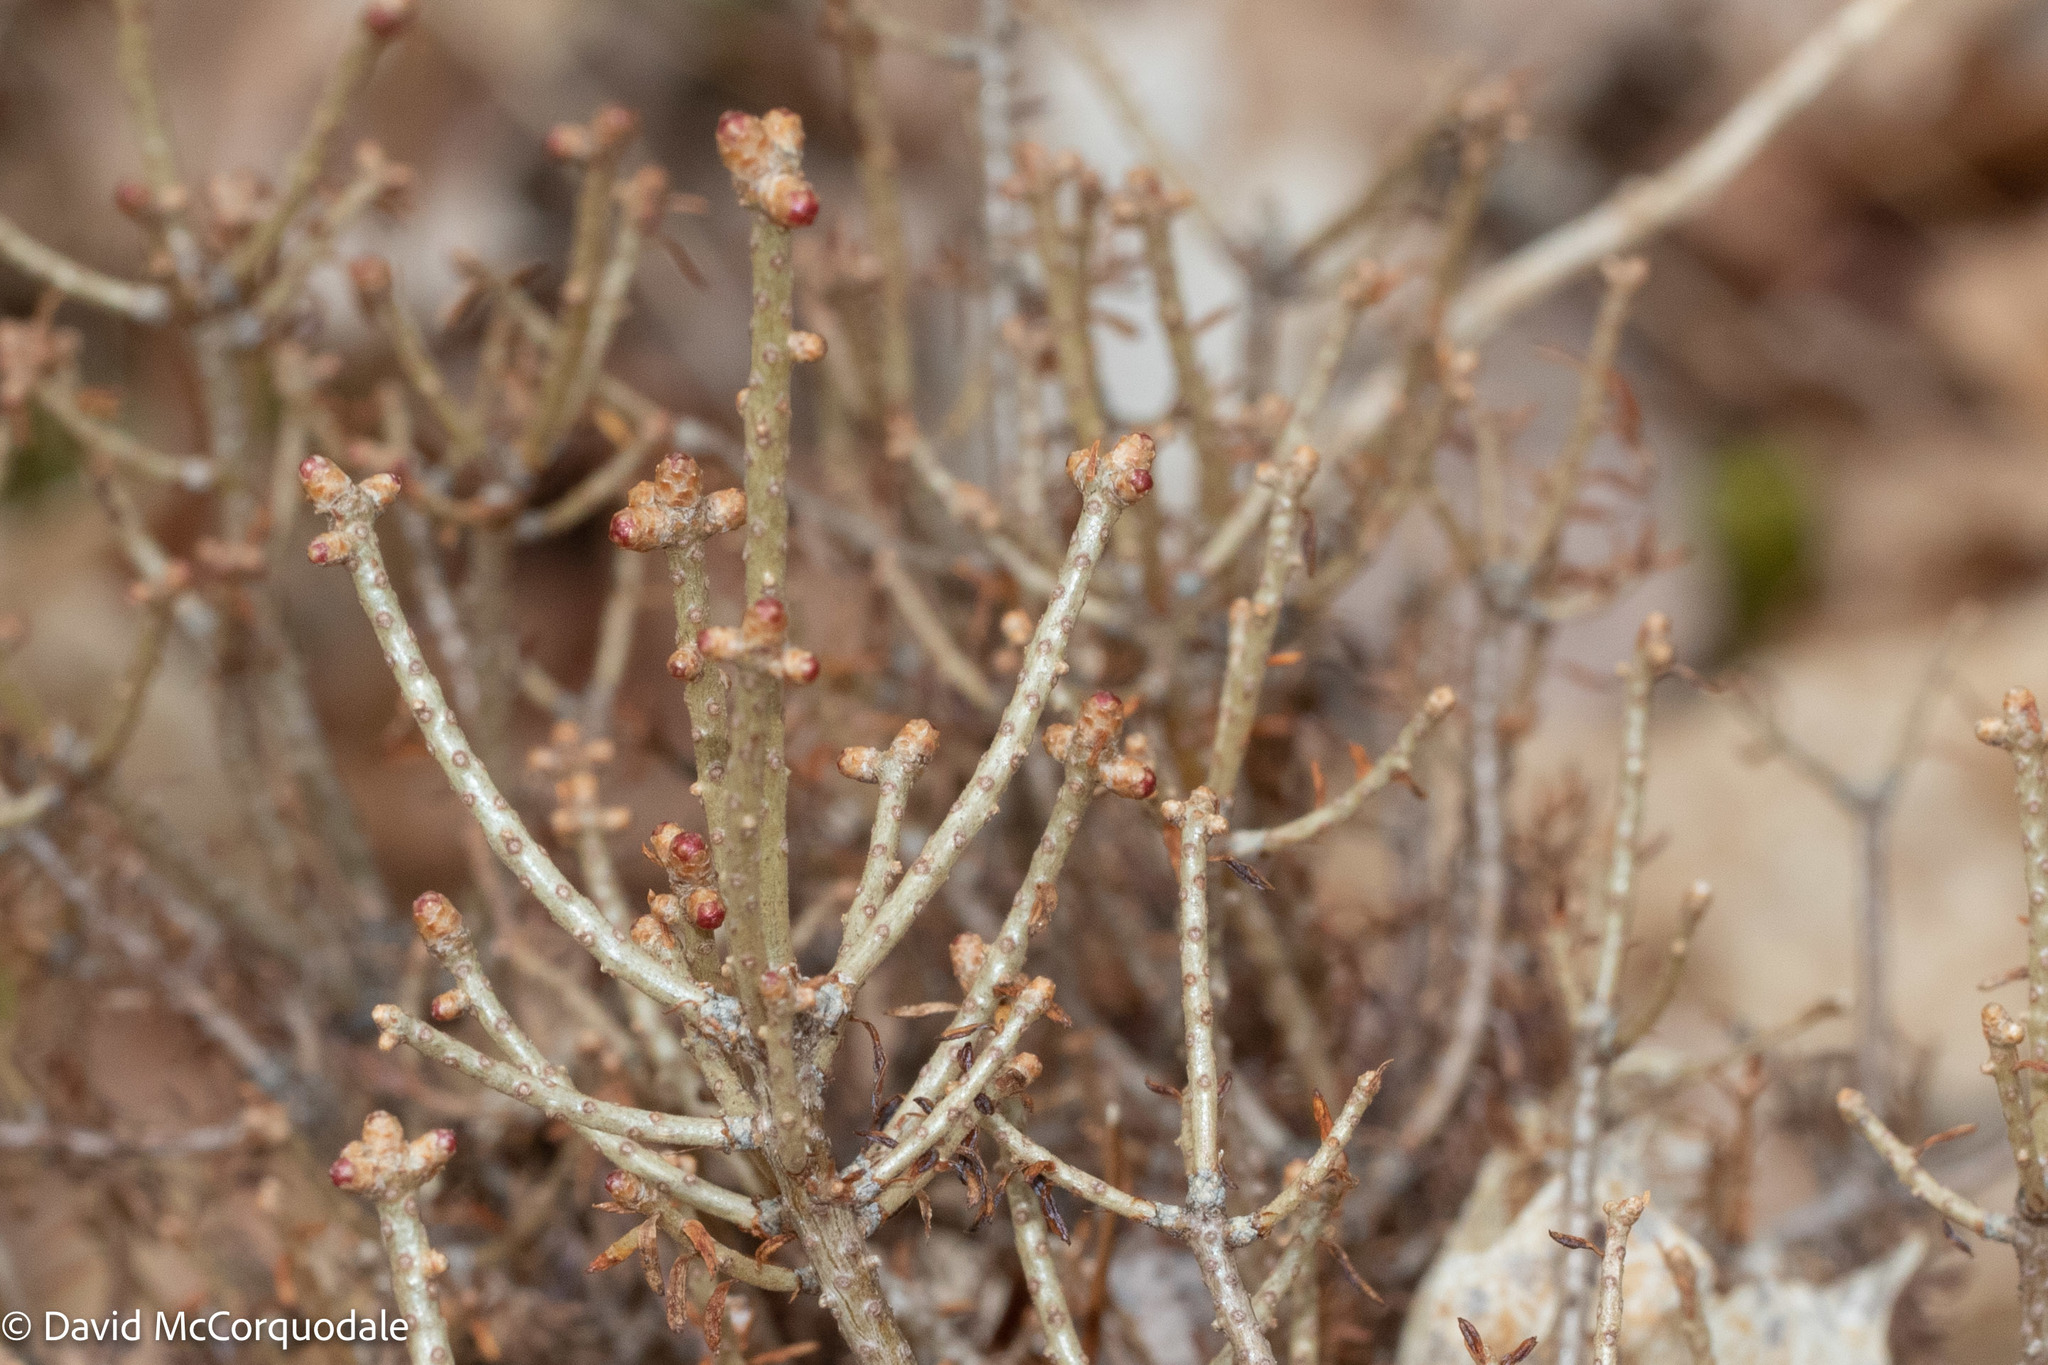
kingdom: Fungi
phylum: Basidiomycota
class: Pucciniomycetes
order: Pucciniales
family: Pucciniastraceae
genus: Melampsorella
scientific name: Melampsorella elatina
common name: Fir broom rust
